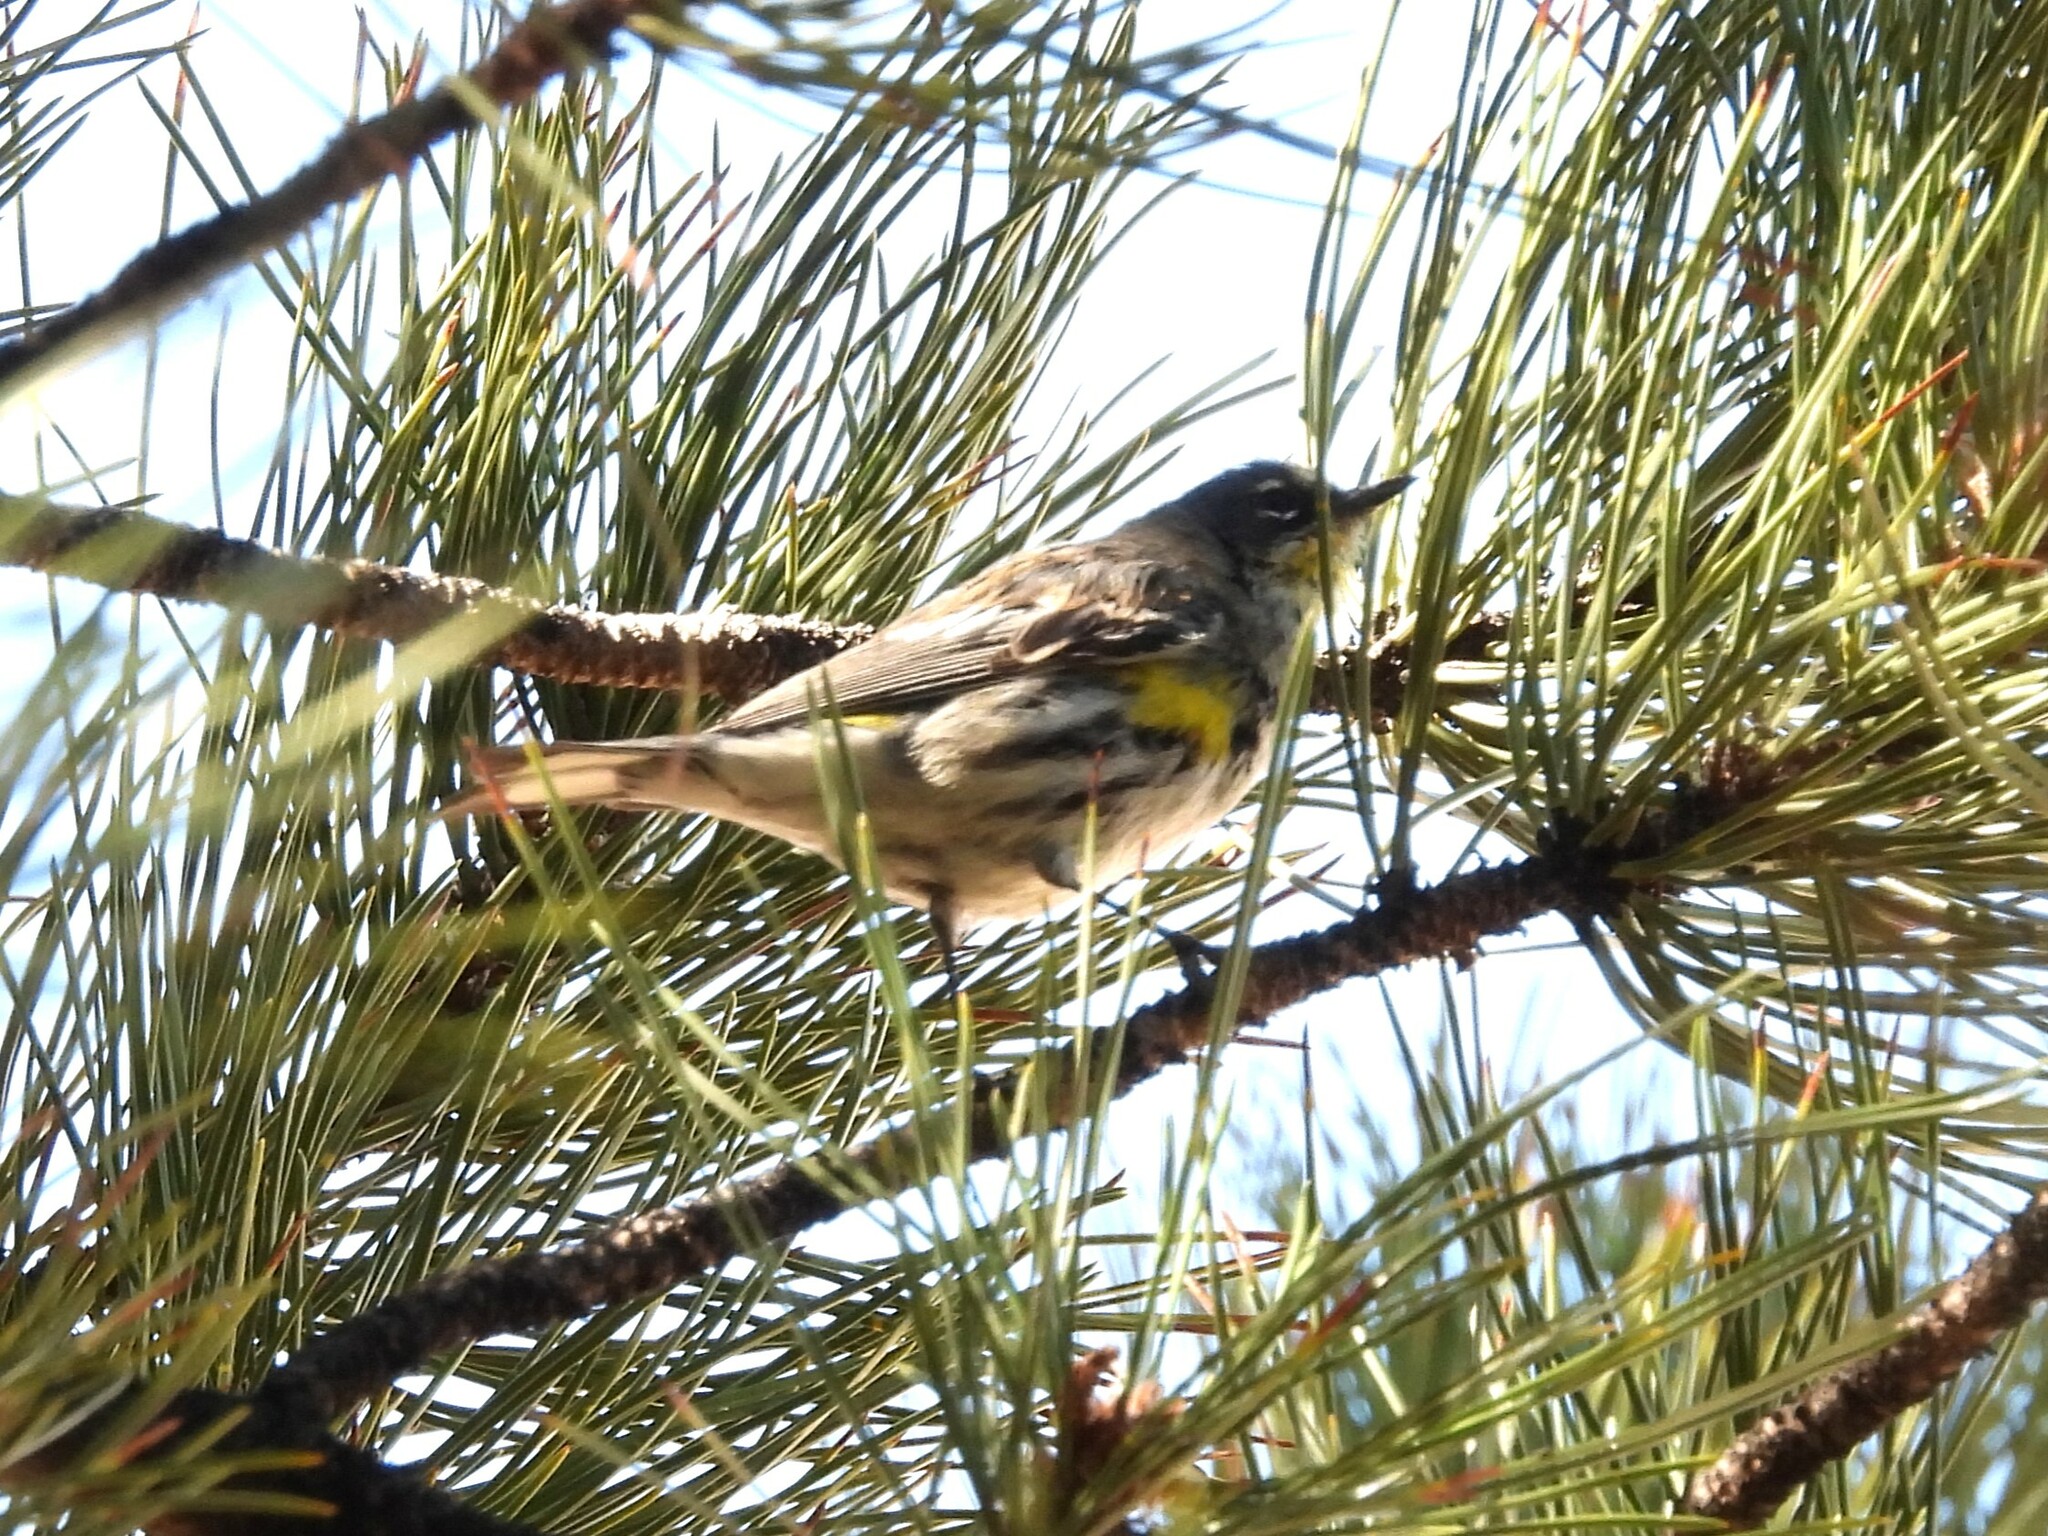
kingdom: Animalia
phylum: Chordata
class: Aves
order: Passeriformes
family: Parulidae
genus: Setophaga
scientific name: Setophaga coronata
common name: Myrtle warbler
